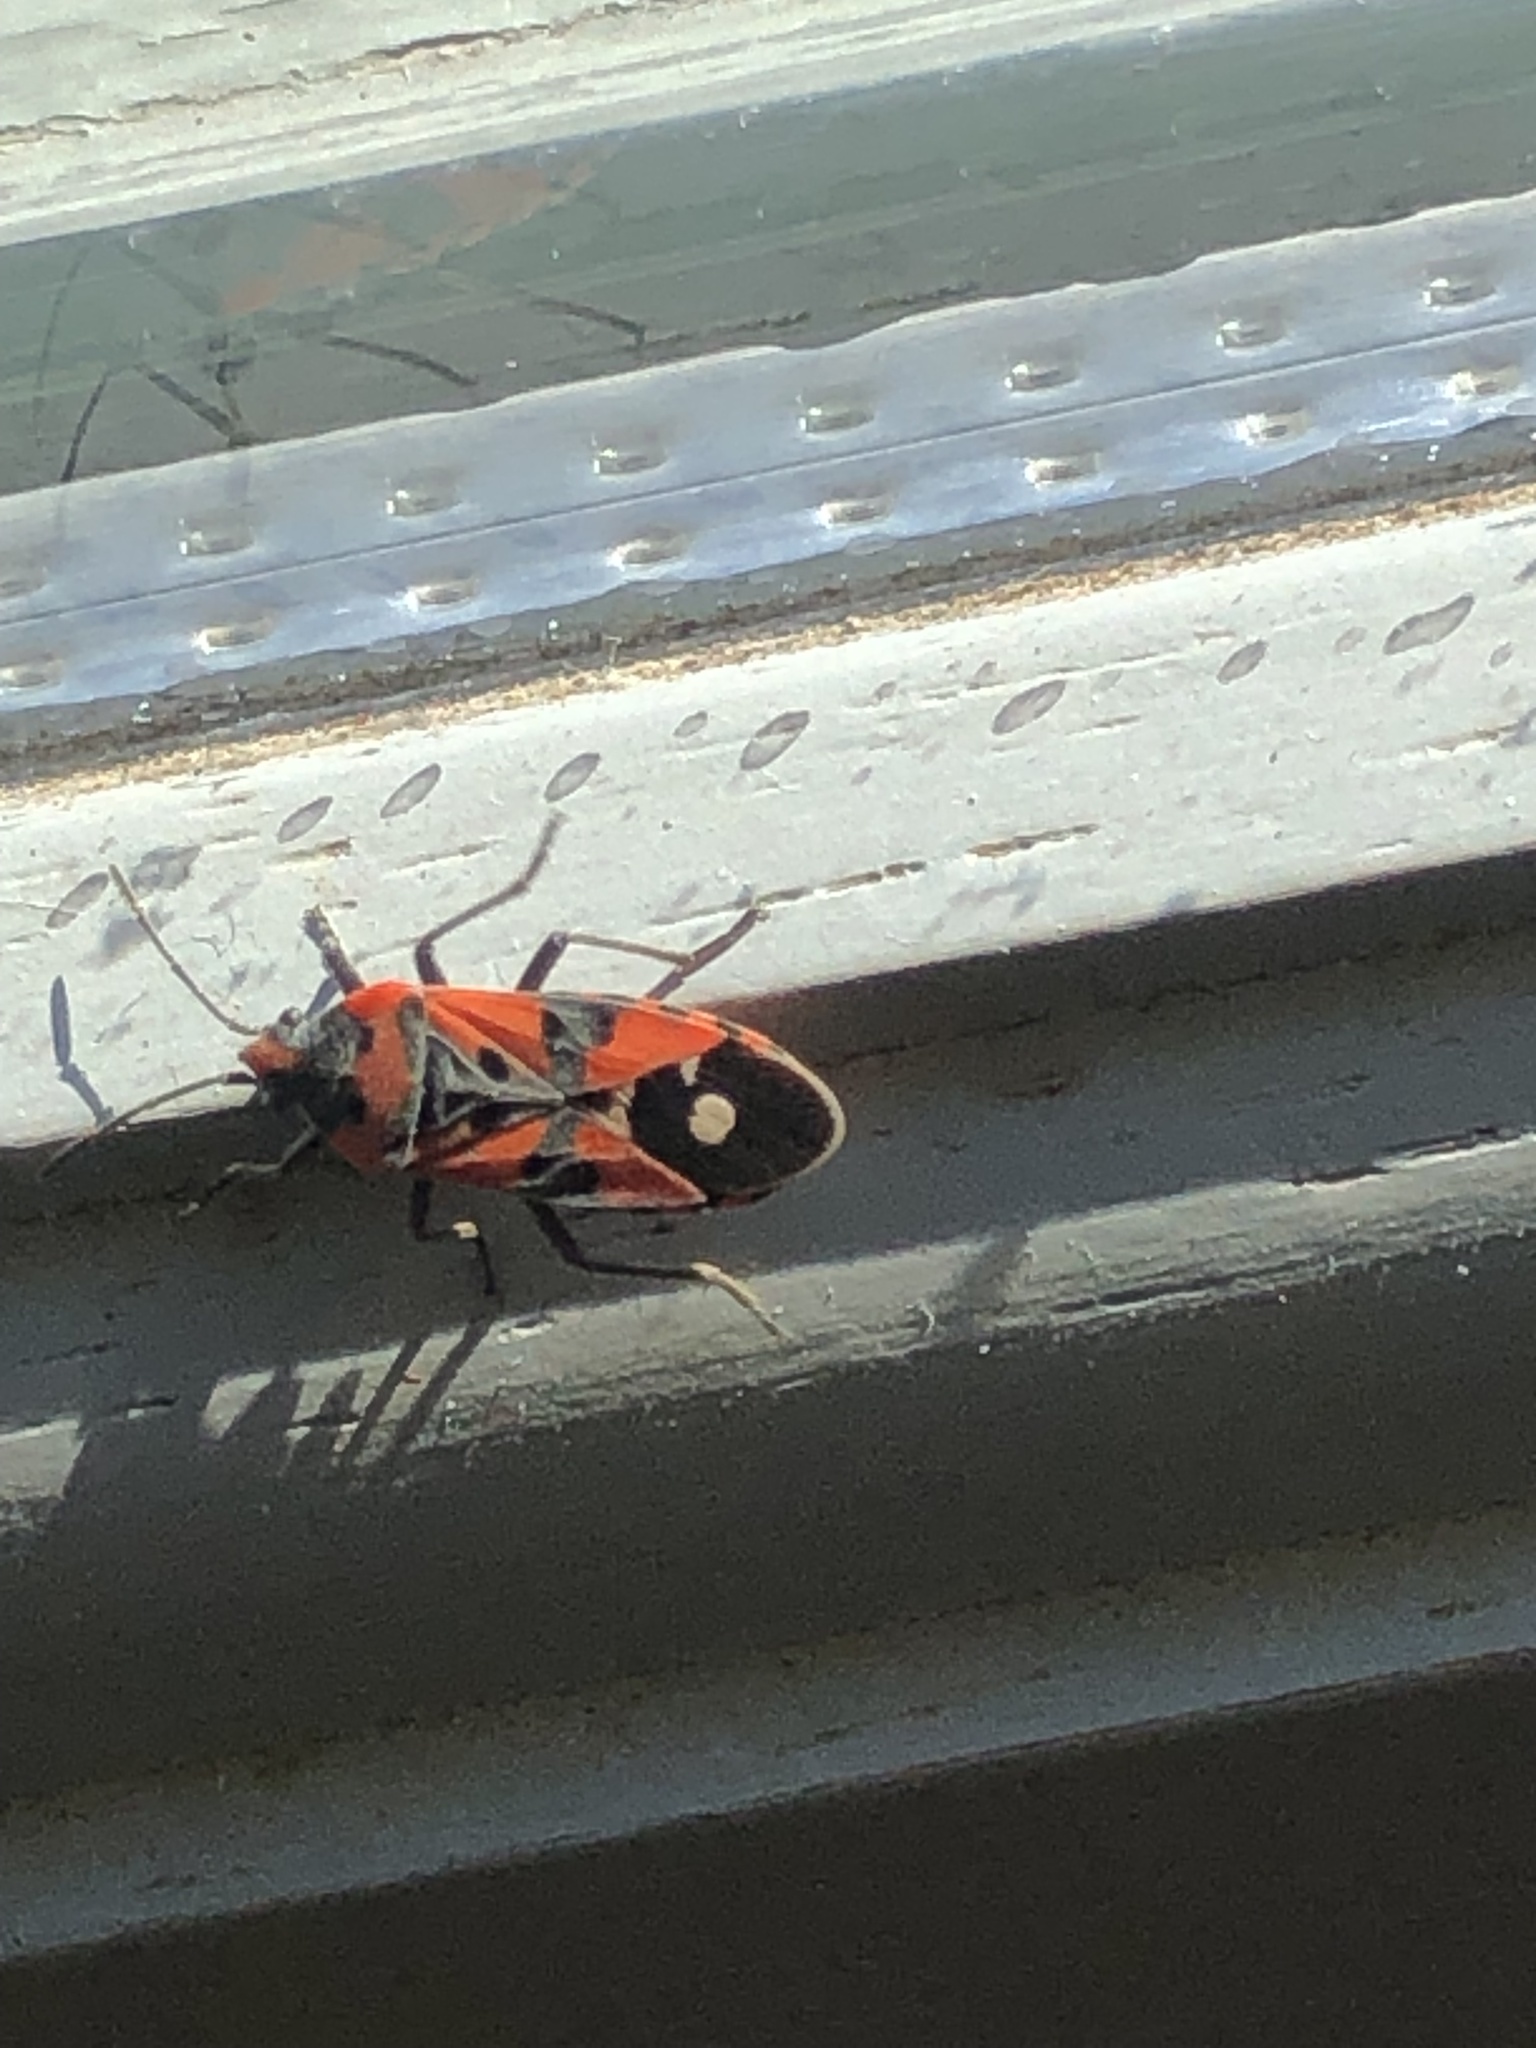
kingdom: Animalia
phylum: Arthropoda
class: Insecta
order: Hemiptera
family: Lygaeidae
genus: Lygaeus
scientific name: Lygaeus equestris
